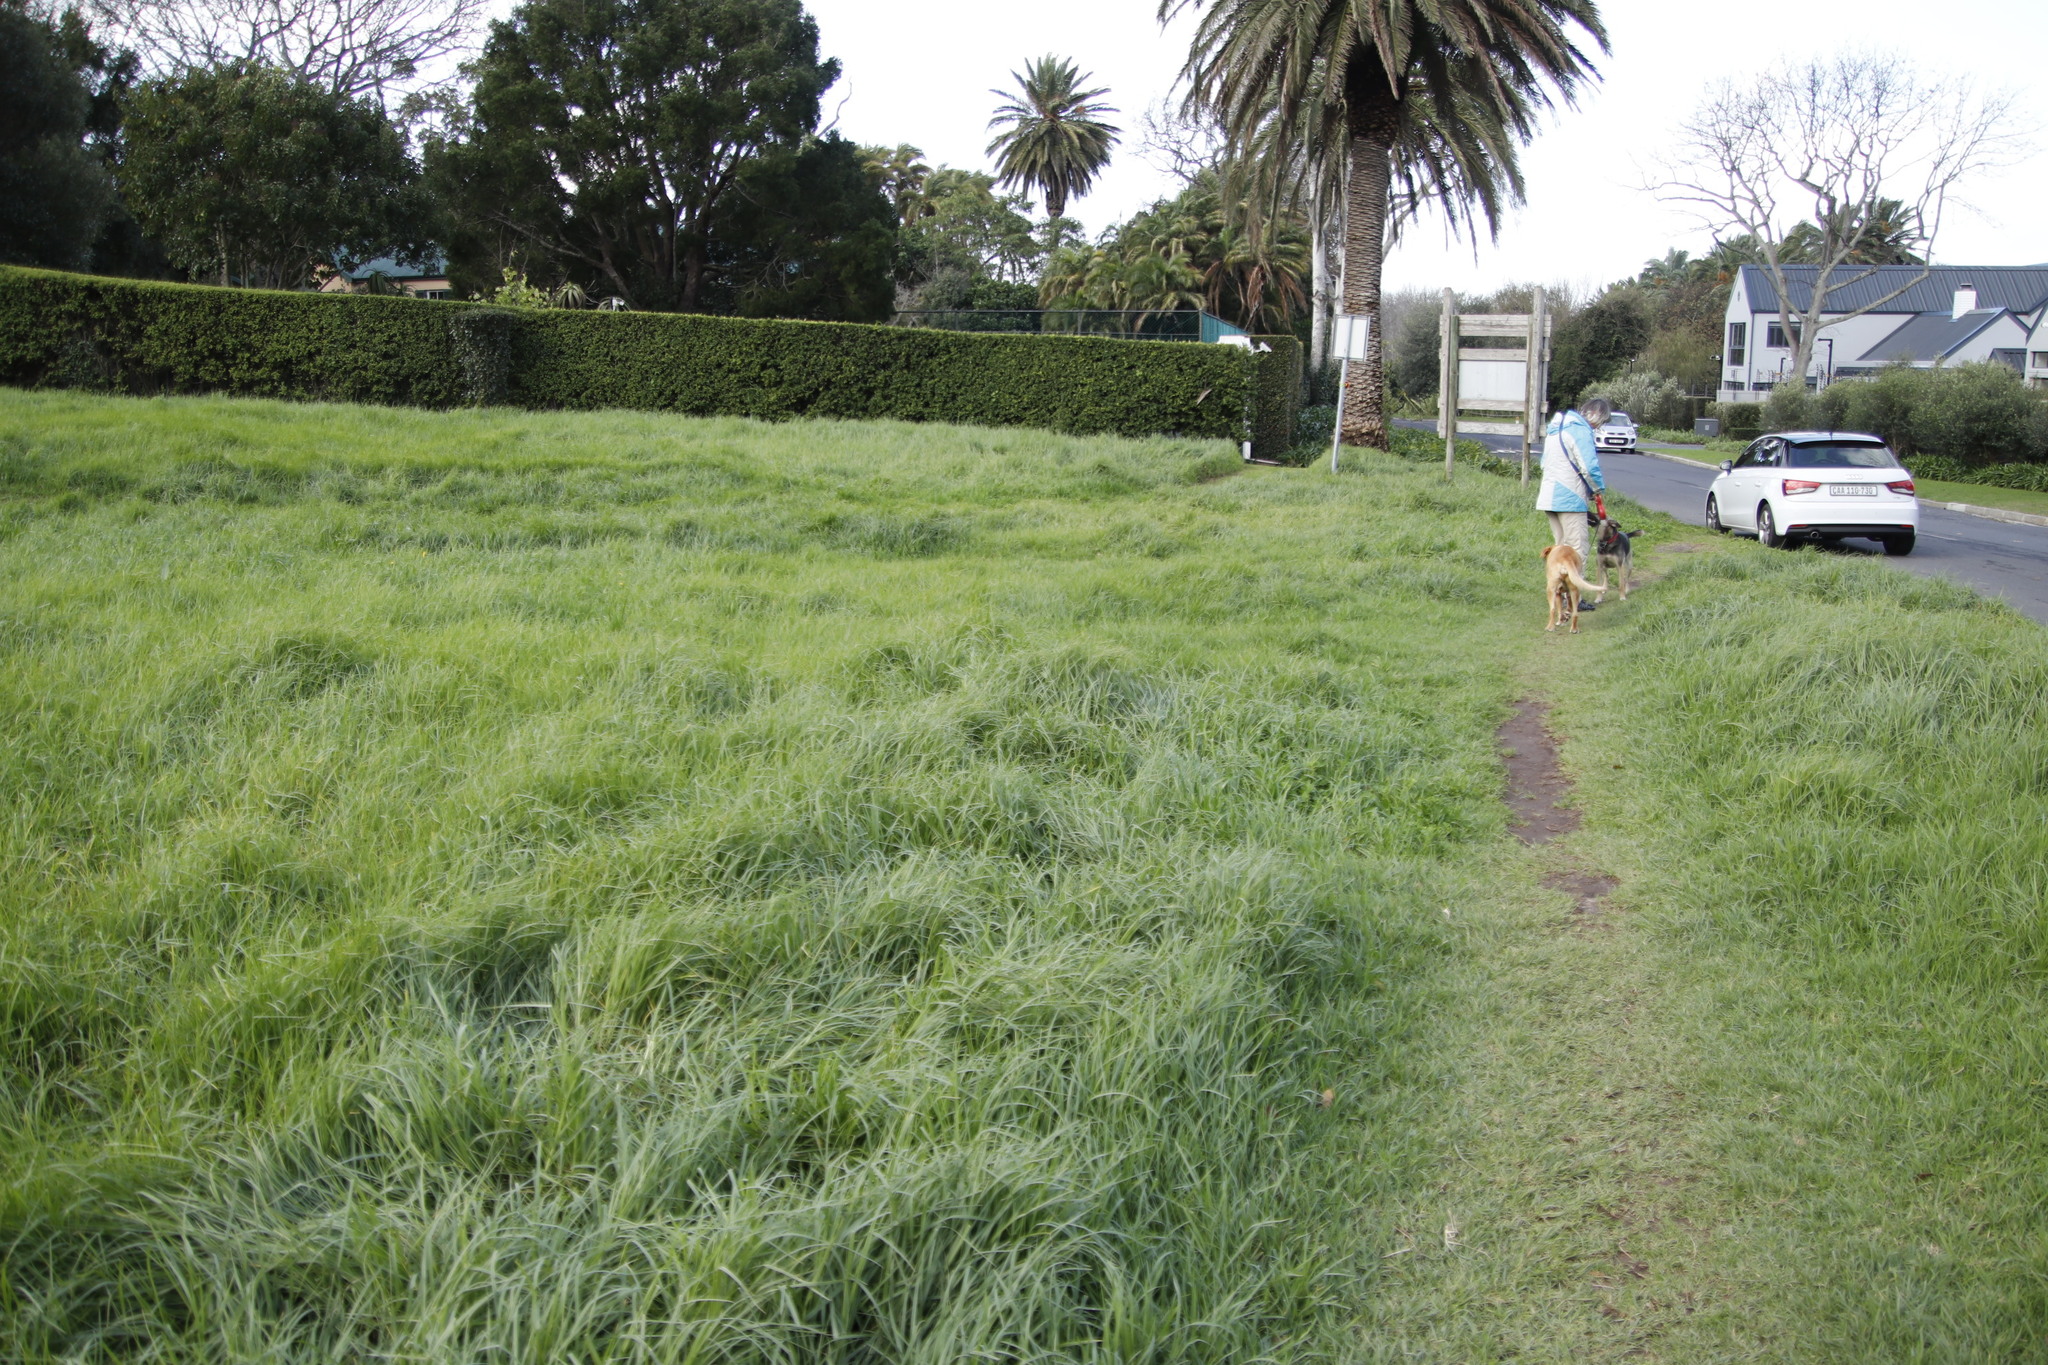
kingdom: Plantae
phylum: Tracheophyta
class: Liliopsida
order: Poales
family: Poaceae
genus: Cenchrus
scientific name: Cenchrus clandestinus
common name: Kikuyugrass
